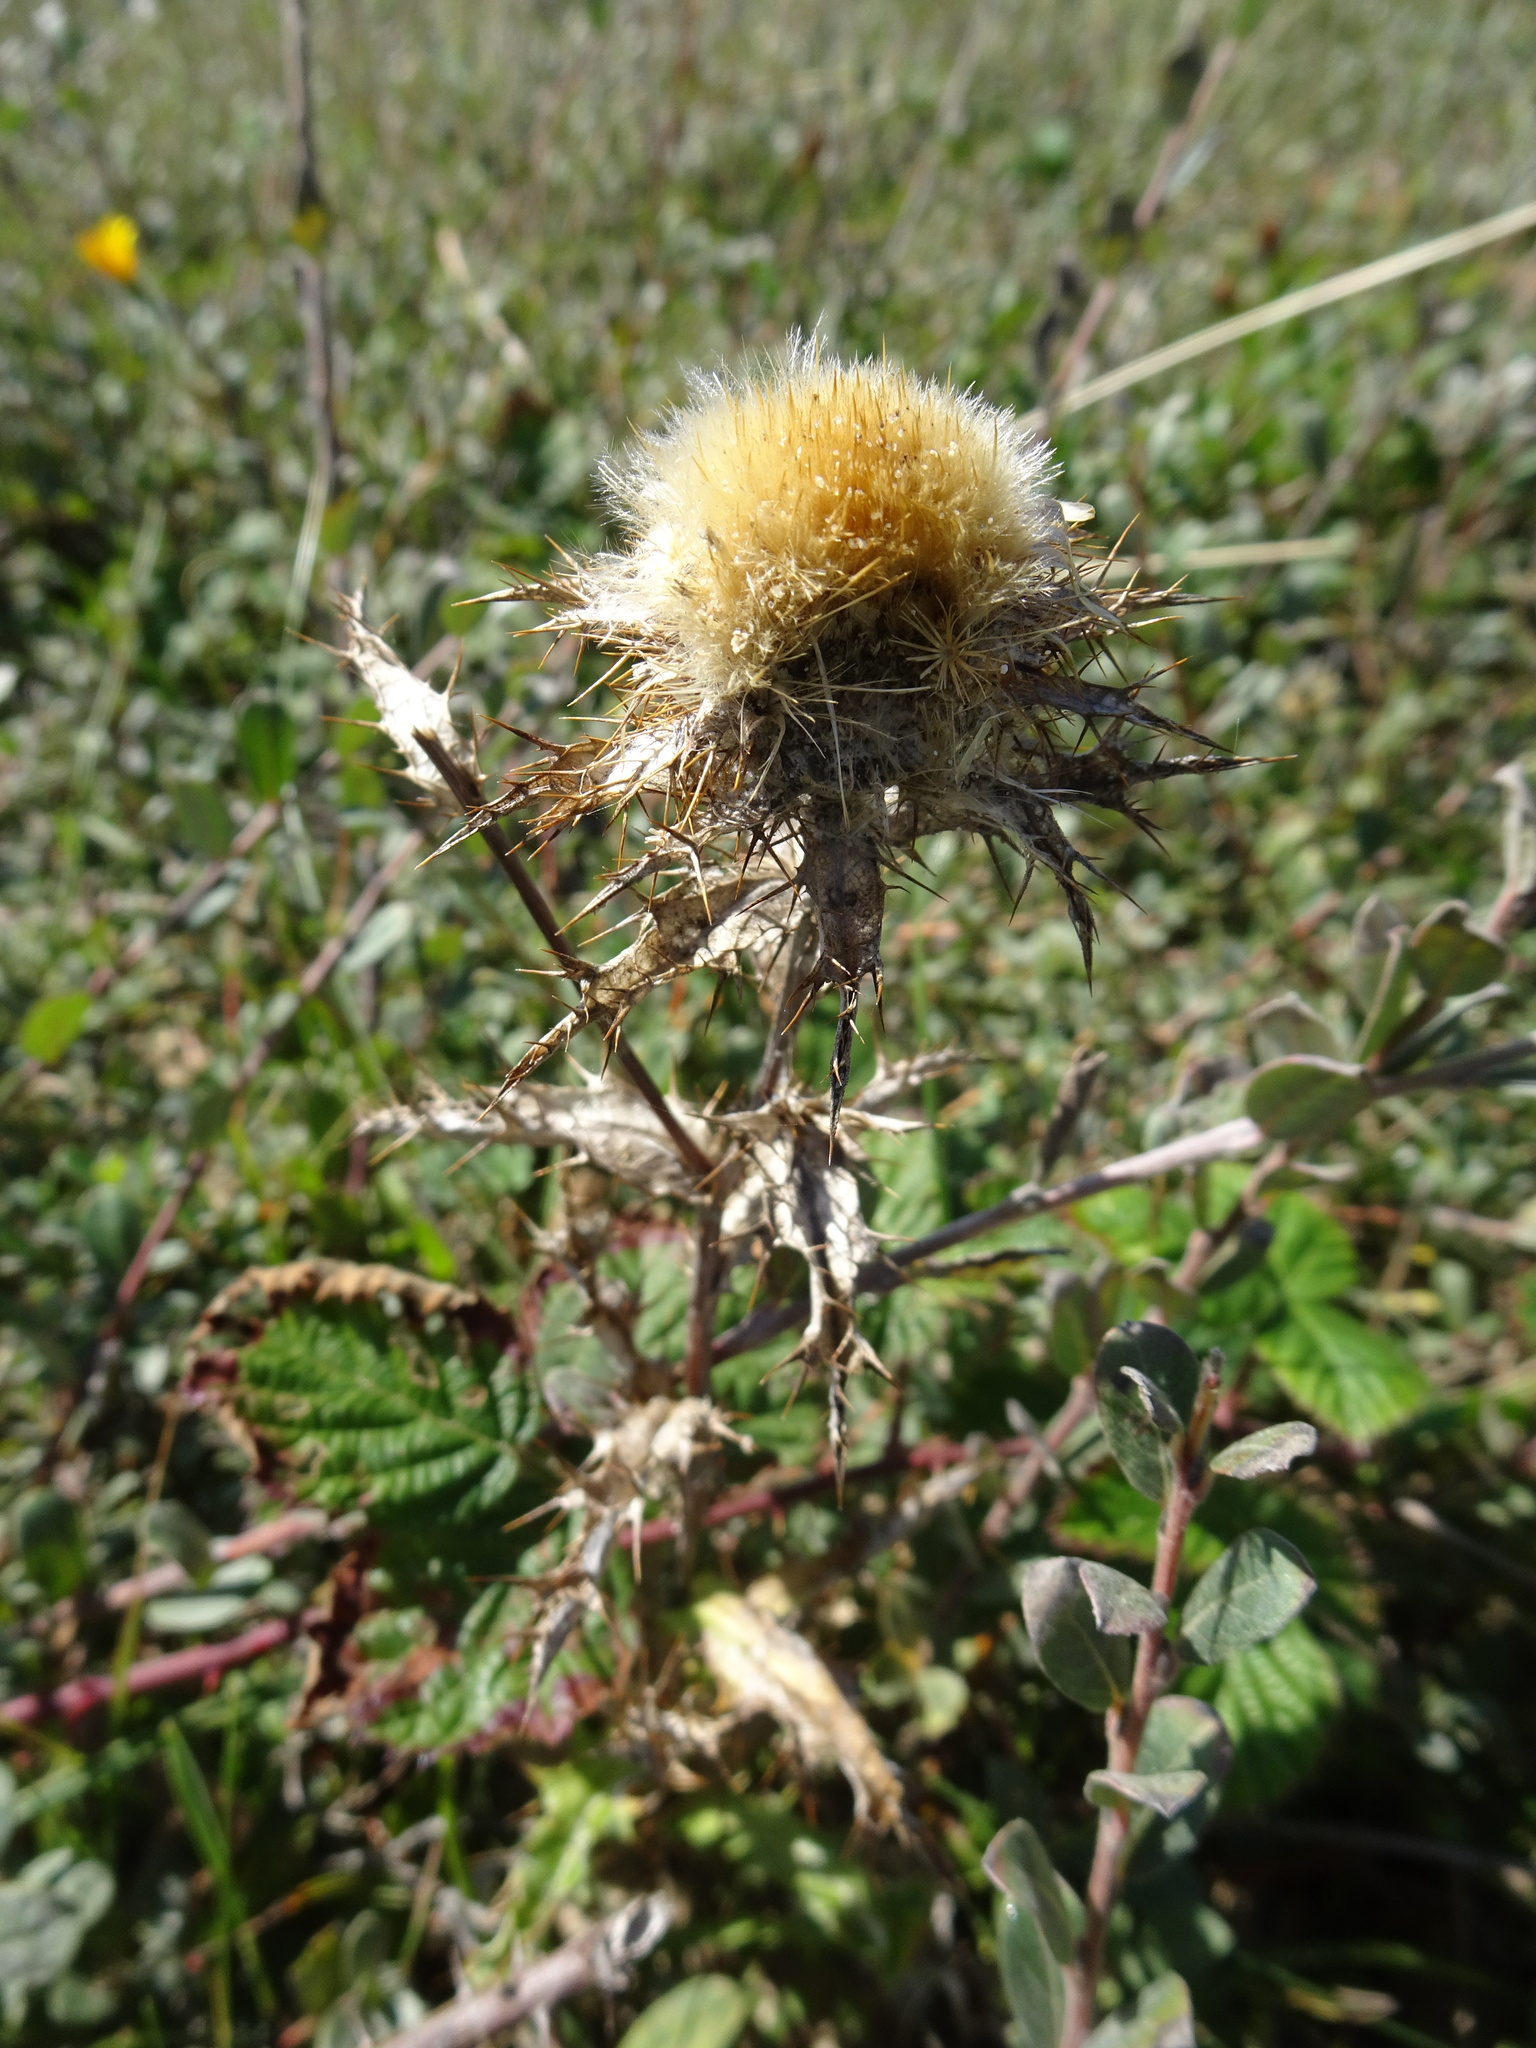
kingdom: Plantae
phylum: Tracheophyta
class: Magnoliopsida
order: Asterales
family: Asteraceae
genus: Carlina
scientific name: Carlina vulgaris
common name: Carline thistle
